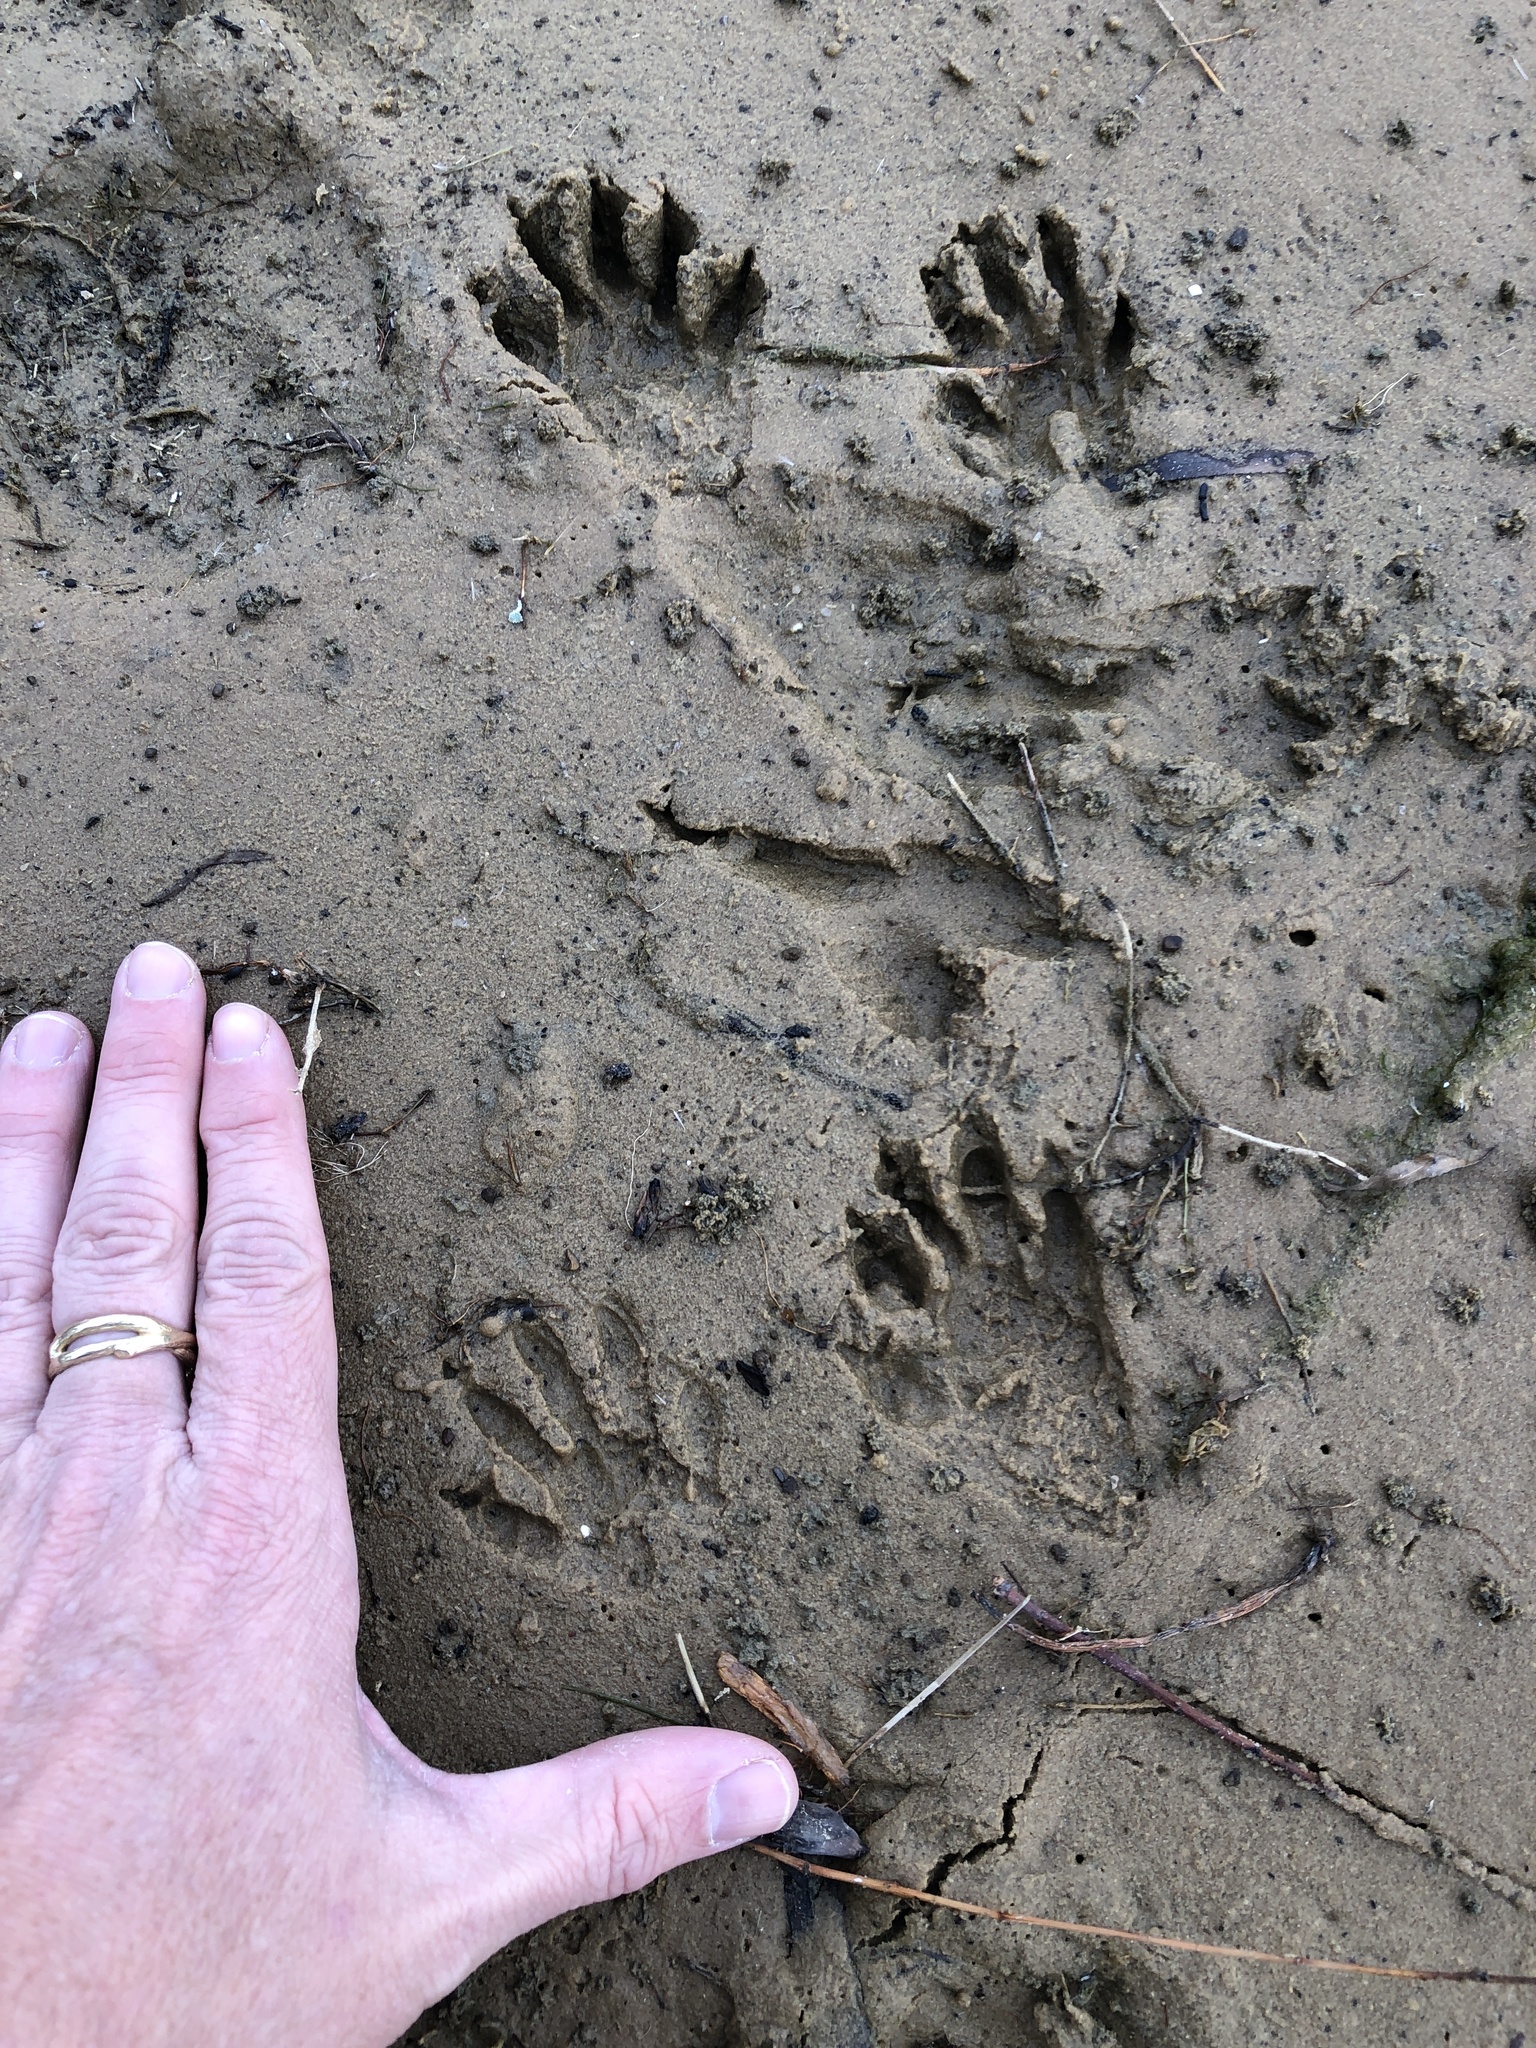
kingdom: Animalia
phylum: Chordata
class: Mammalia
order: Carnivora
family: Procyonidae
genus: Procyon
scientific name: Procyon lotor
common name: Raccoon
